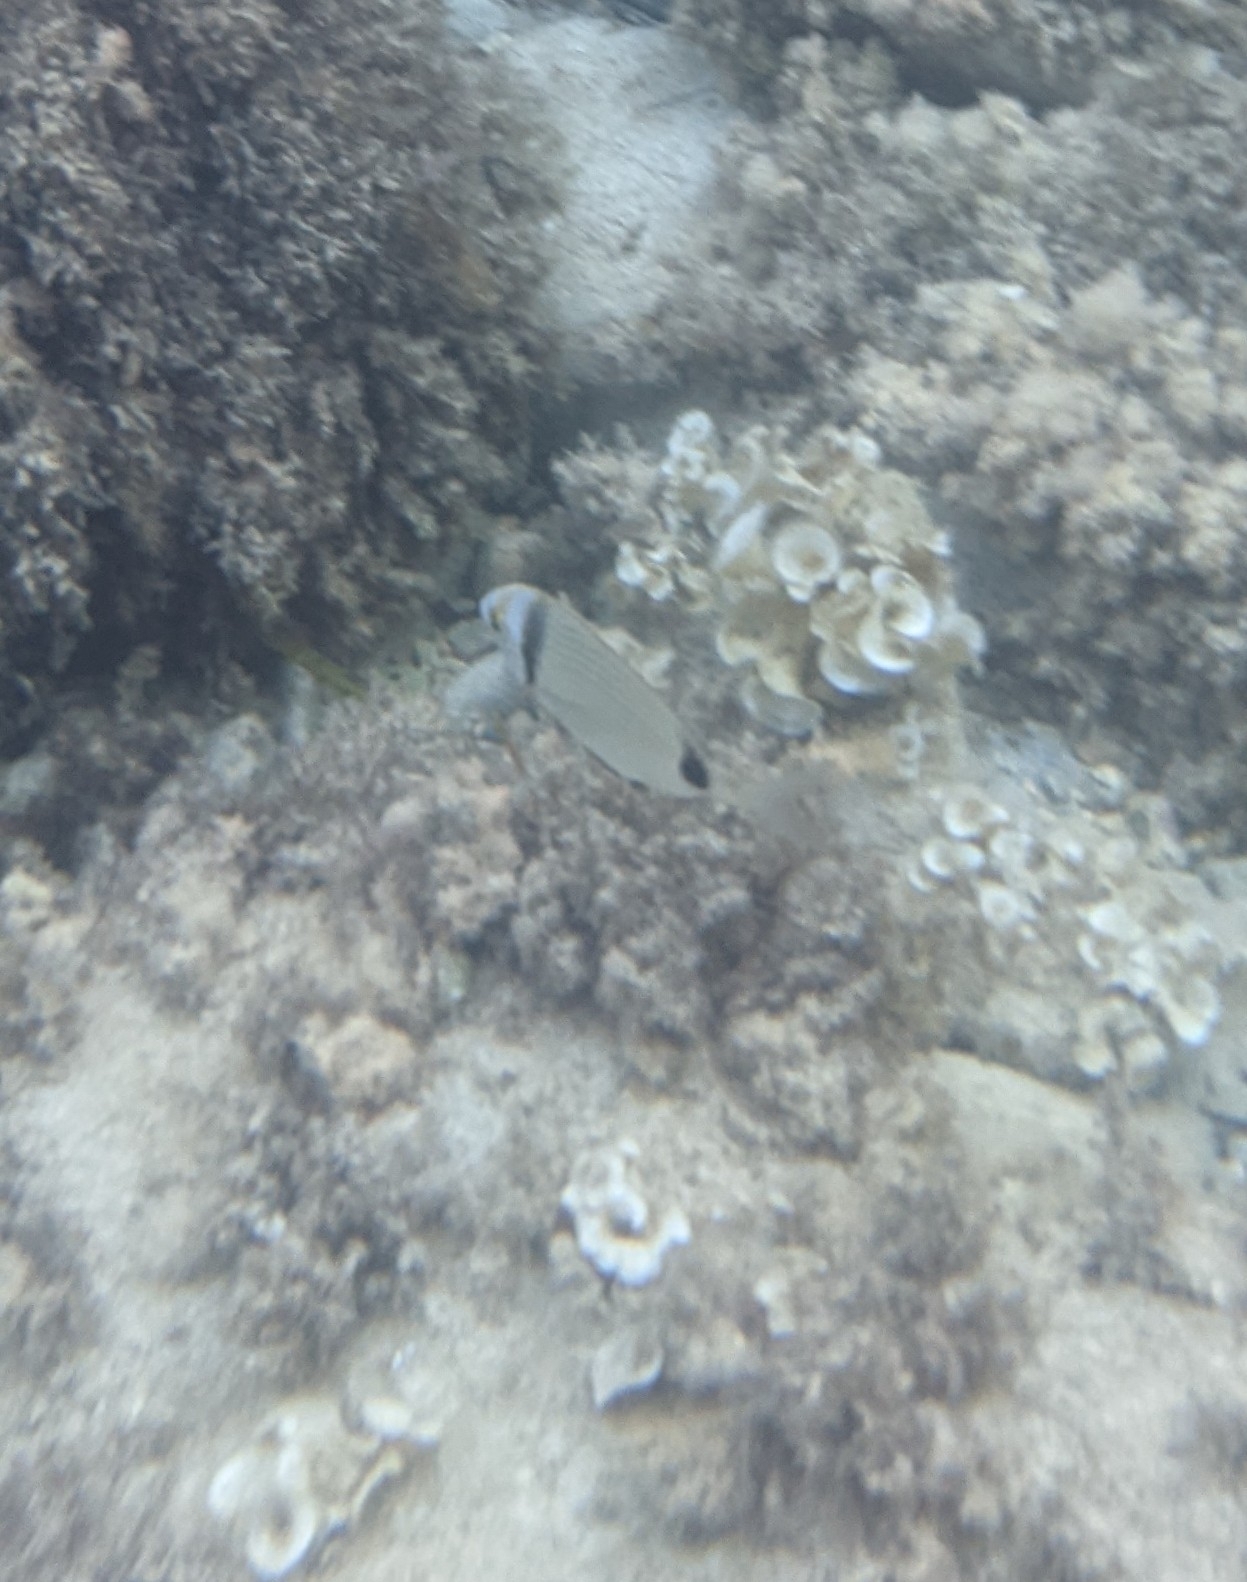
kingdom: Animalia
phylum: Chordata
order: Perciformes
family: Sparidae
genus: Diplodus
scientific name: Diplodus vulgaris
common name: Common two-banded seabream
